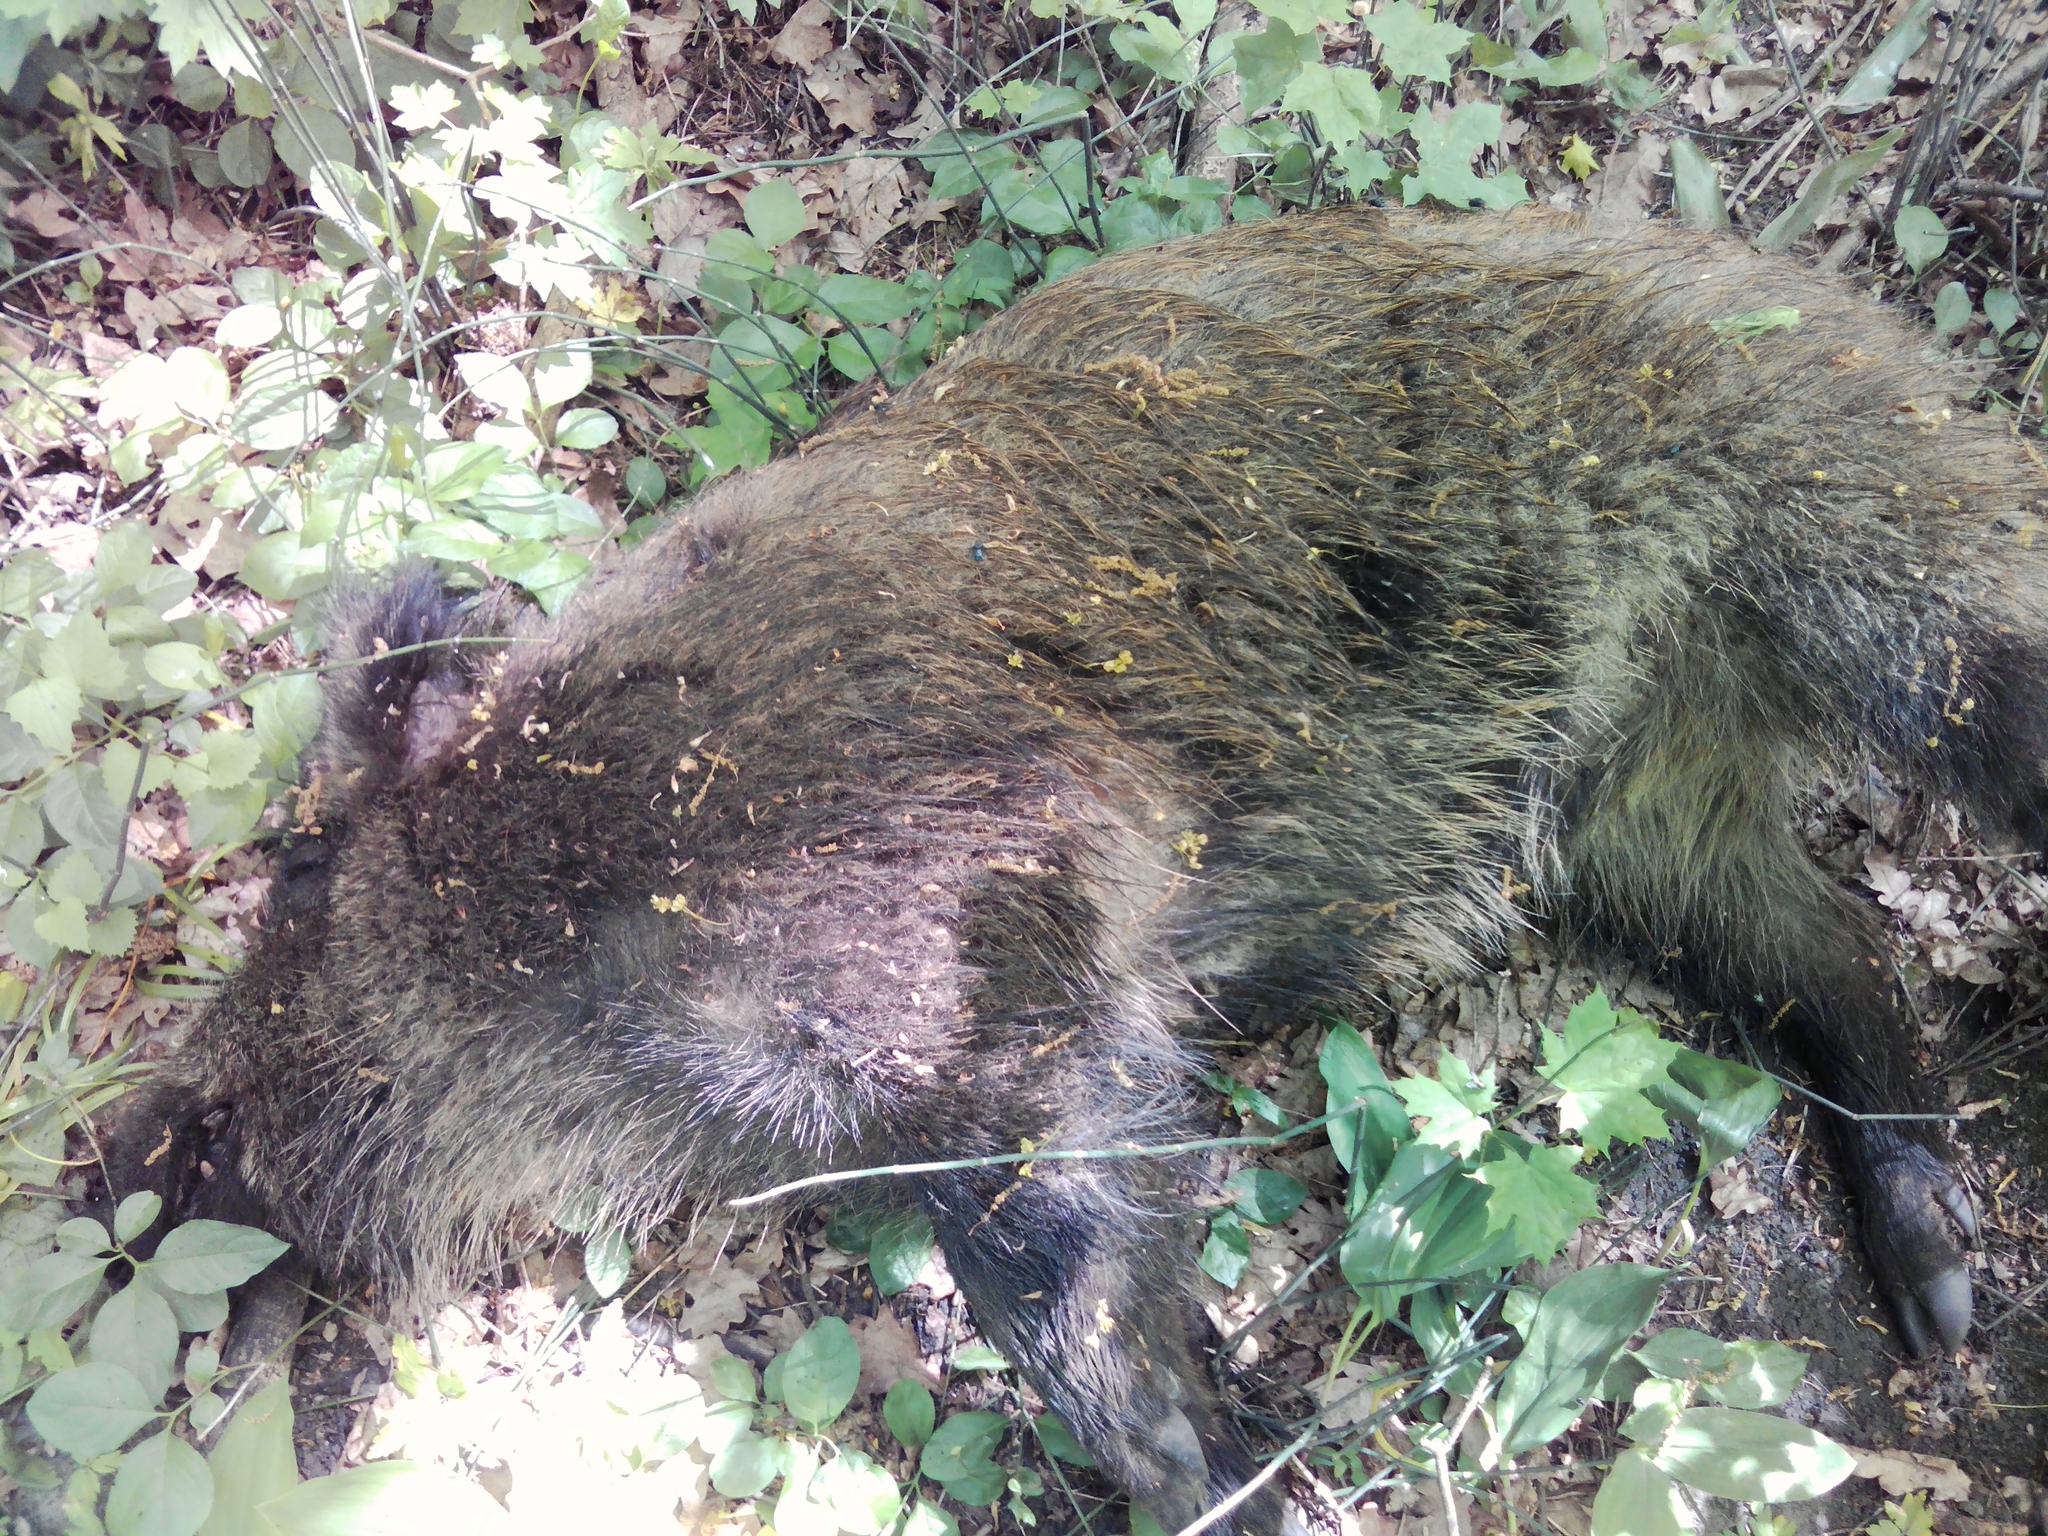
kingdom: Animalia
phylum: Chordata
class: Mammalia
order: Artiodactyla
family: Suidae
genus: Sus
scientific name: Sus scrofa
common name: Wild boar
